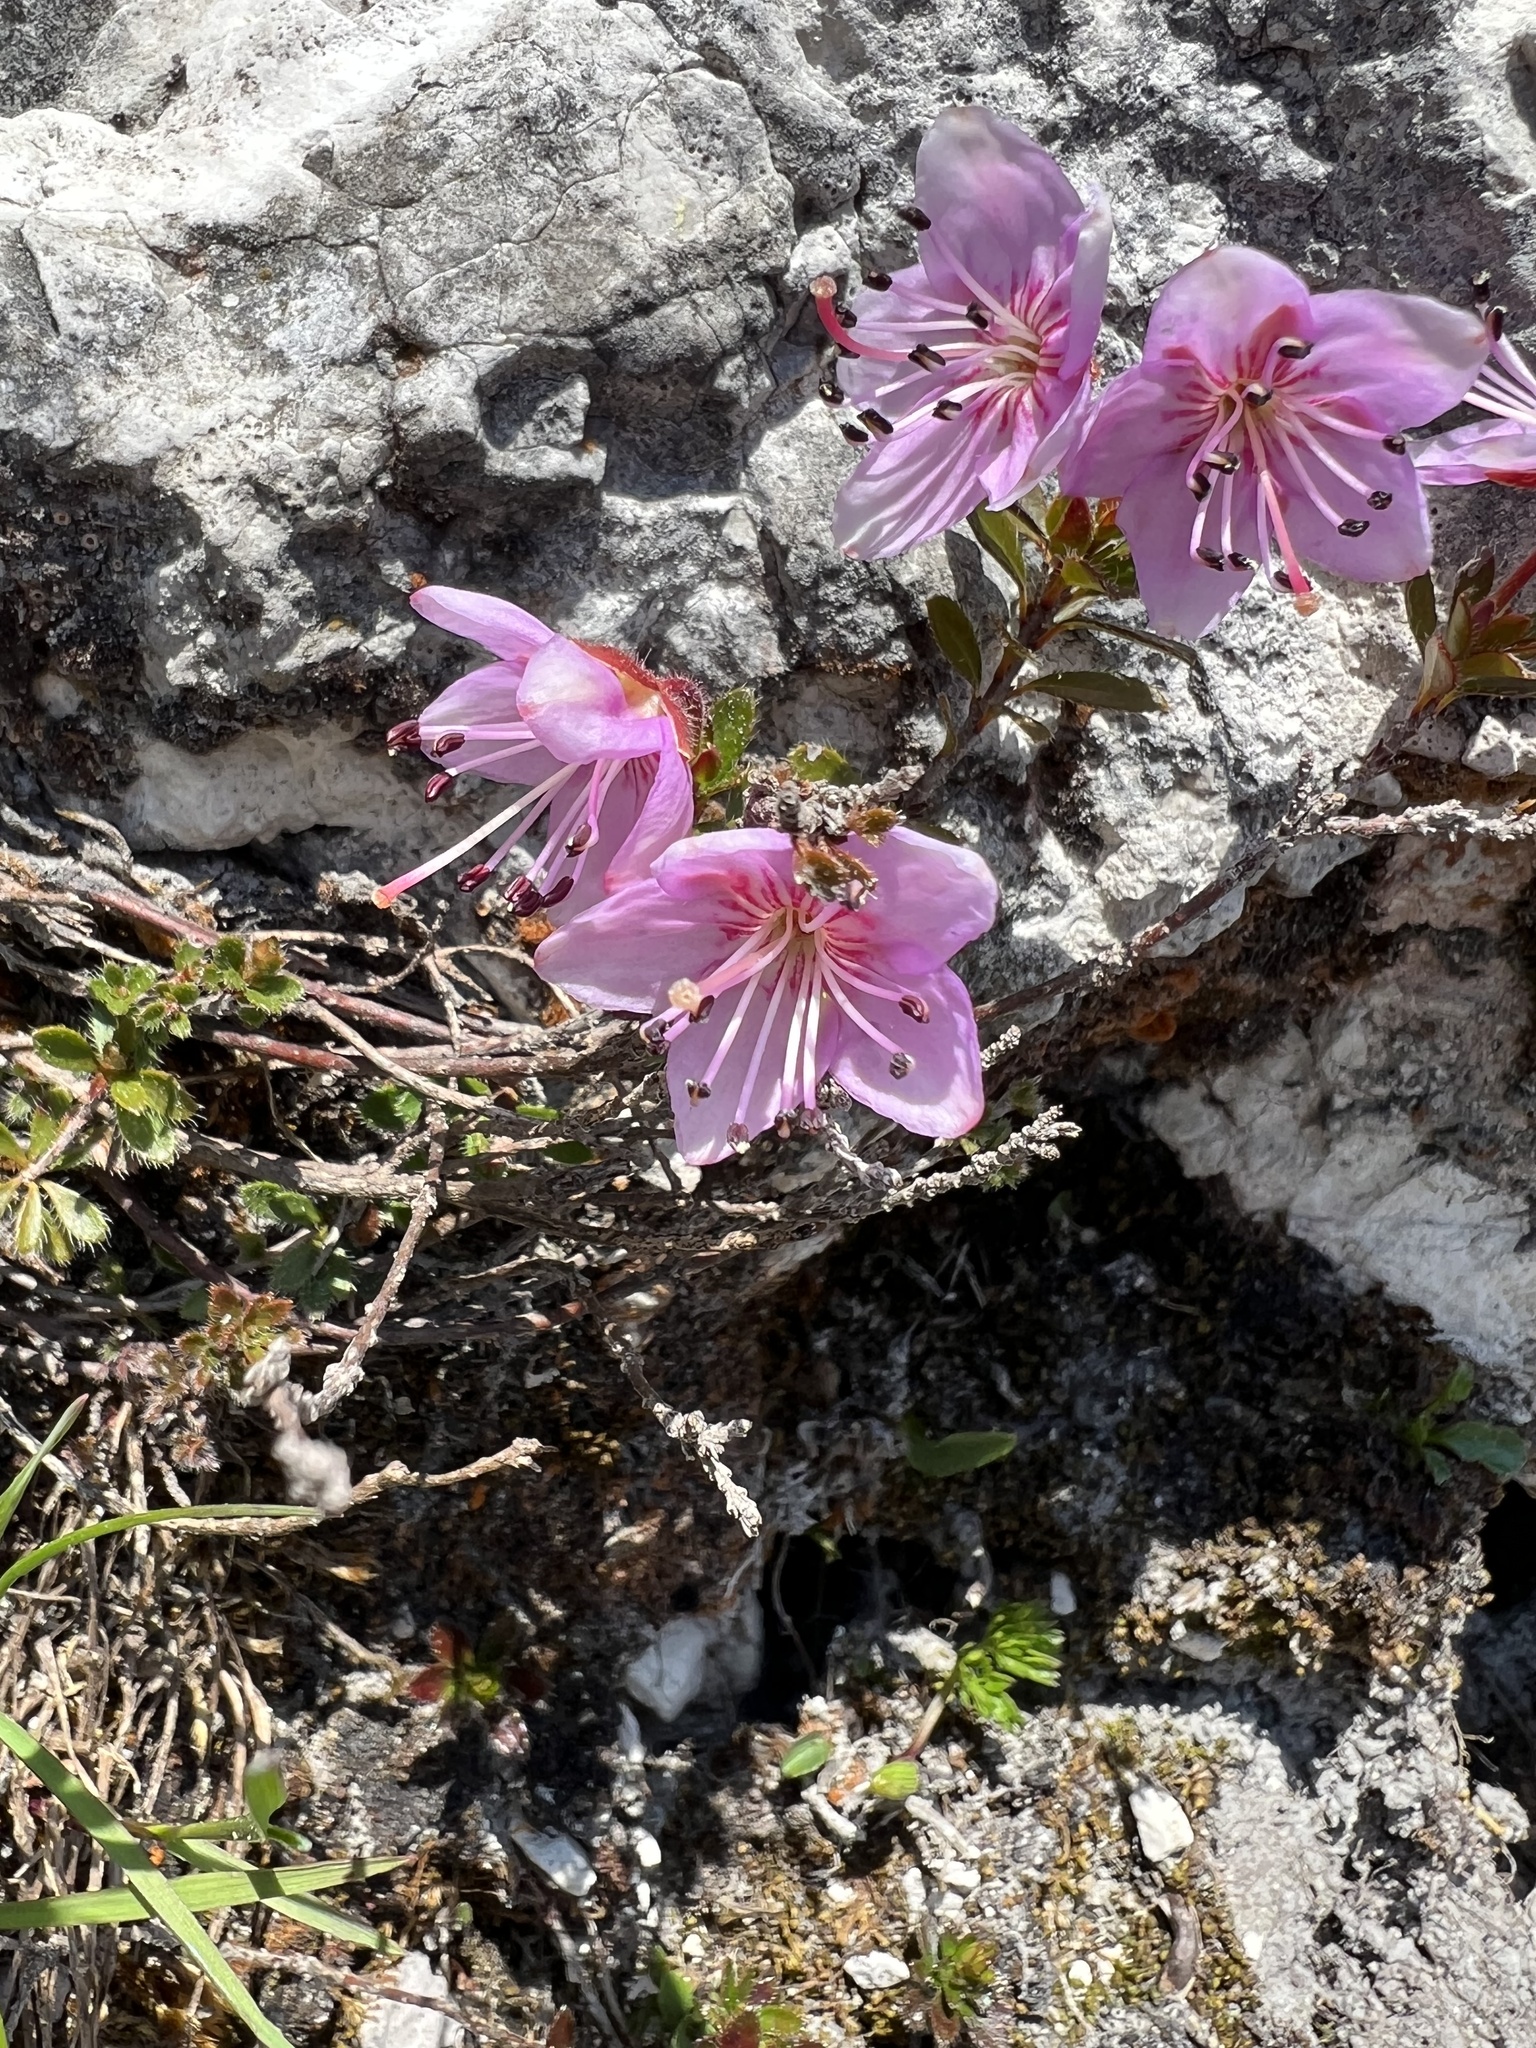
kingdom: Plantae
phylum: Tracheophyta
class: Magnoliopsida
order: Ericales
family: Ericaceae
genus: Rhodothamnus
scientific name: Rhodothamnus chamaecistus
